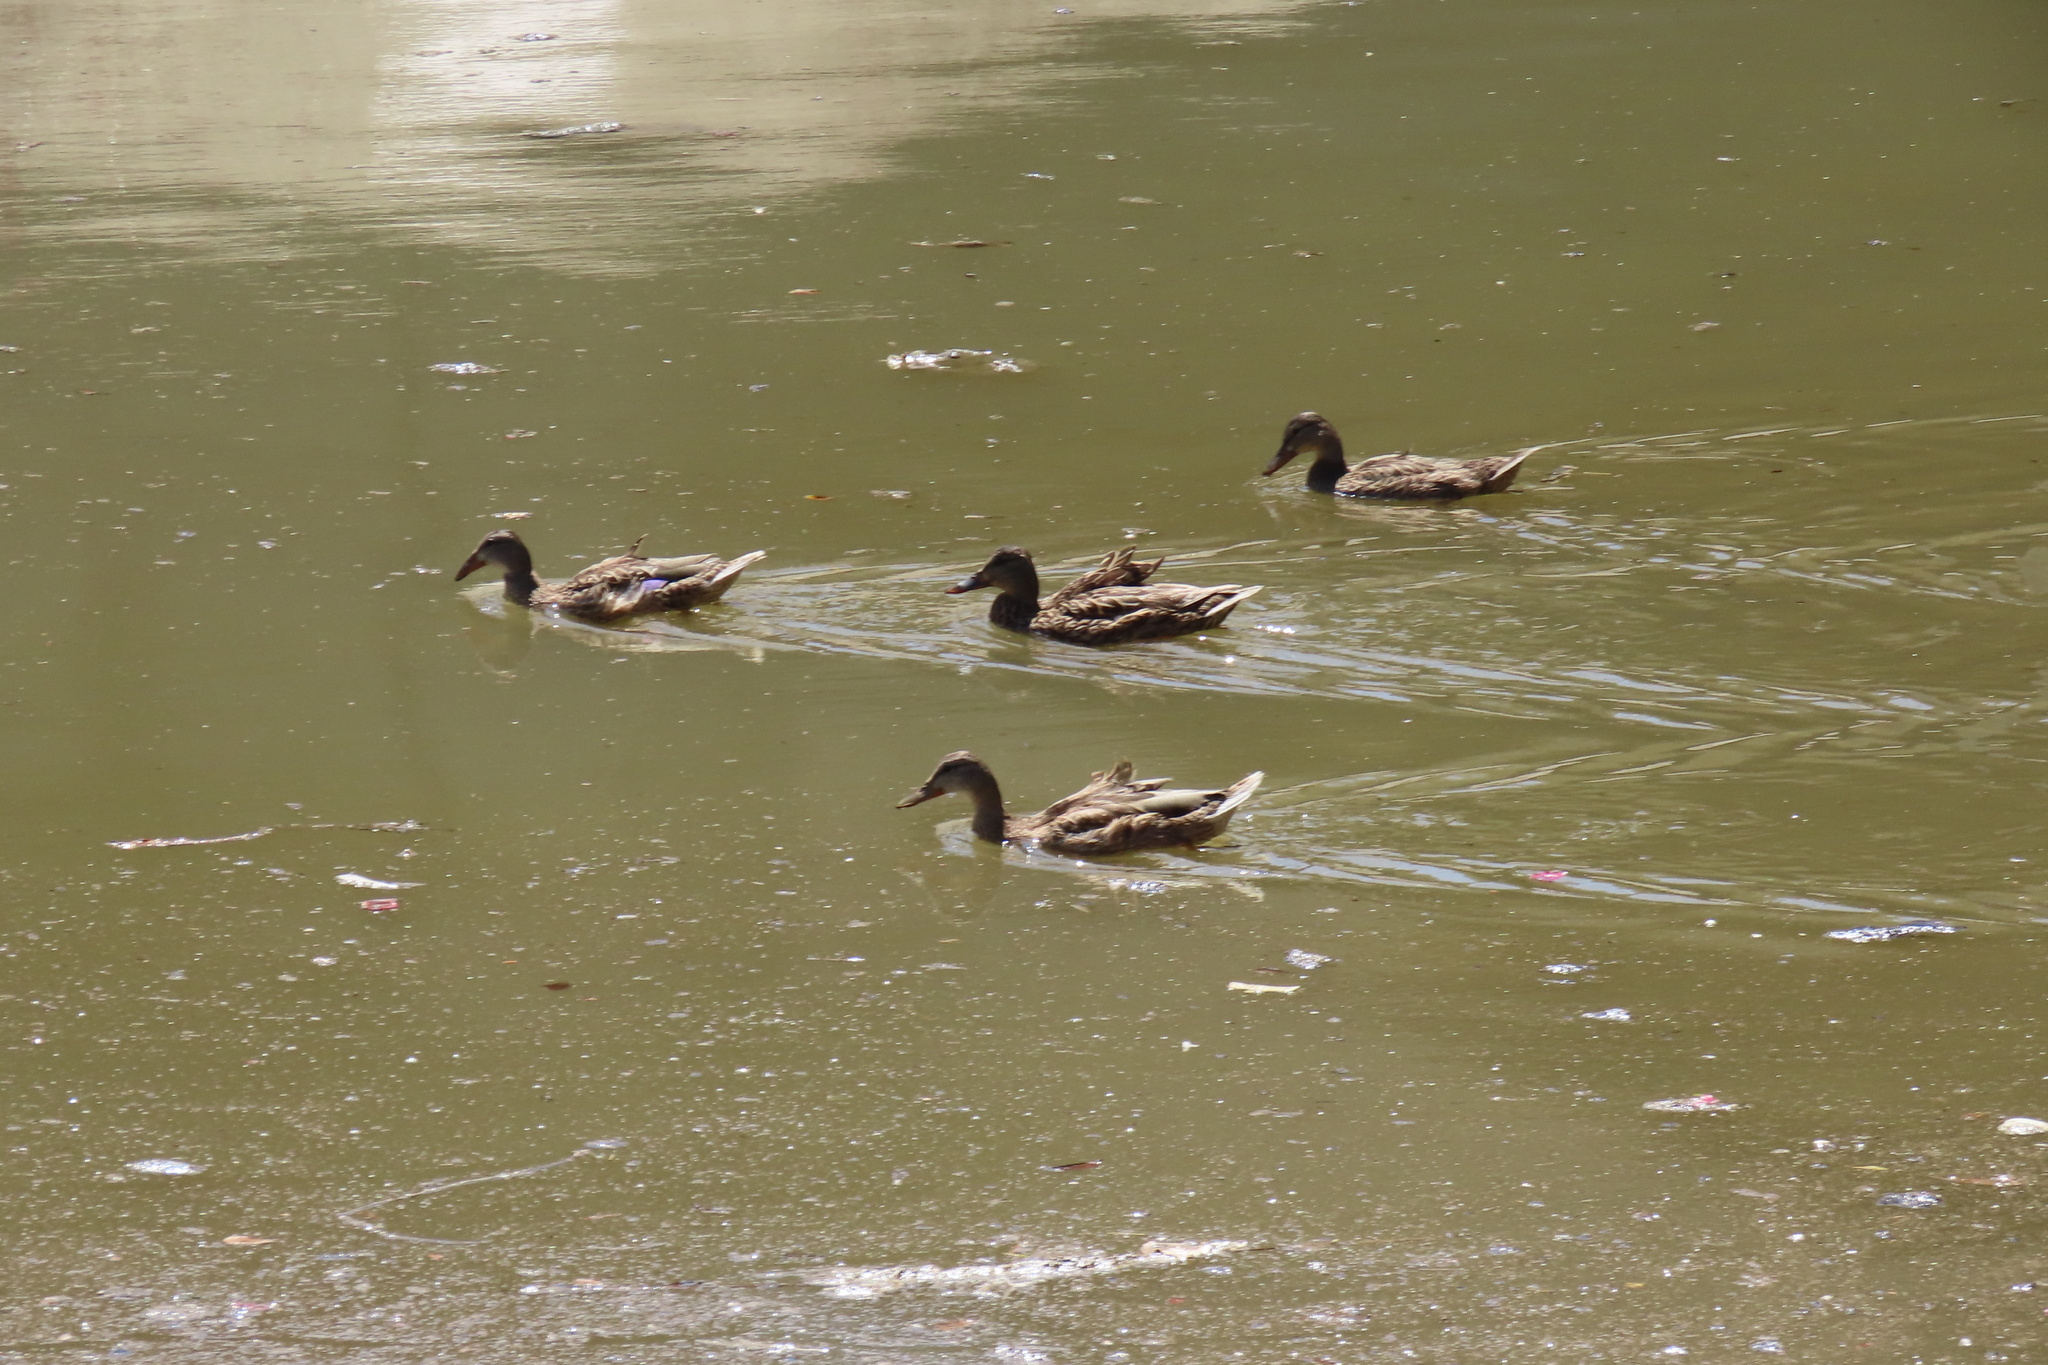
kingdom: Animalia
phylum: Chordata
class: Aves
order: Anseriformes
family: Anatidae
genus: Anas
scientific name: Anas platyrhynchos
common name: Mallard
